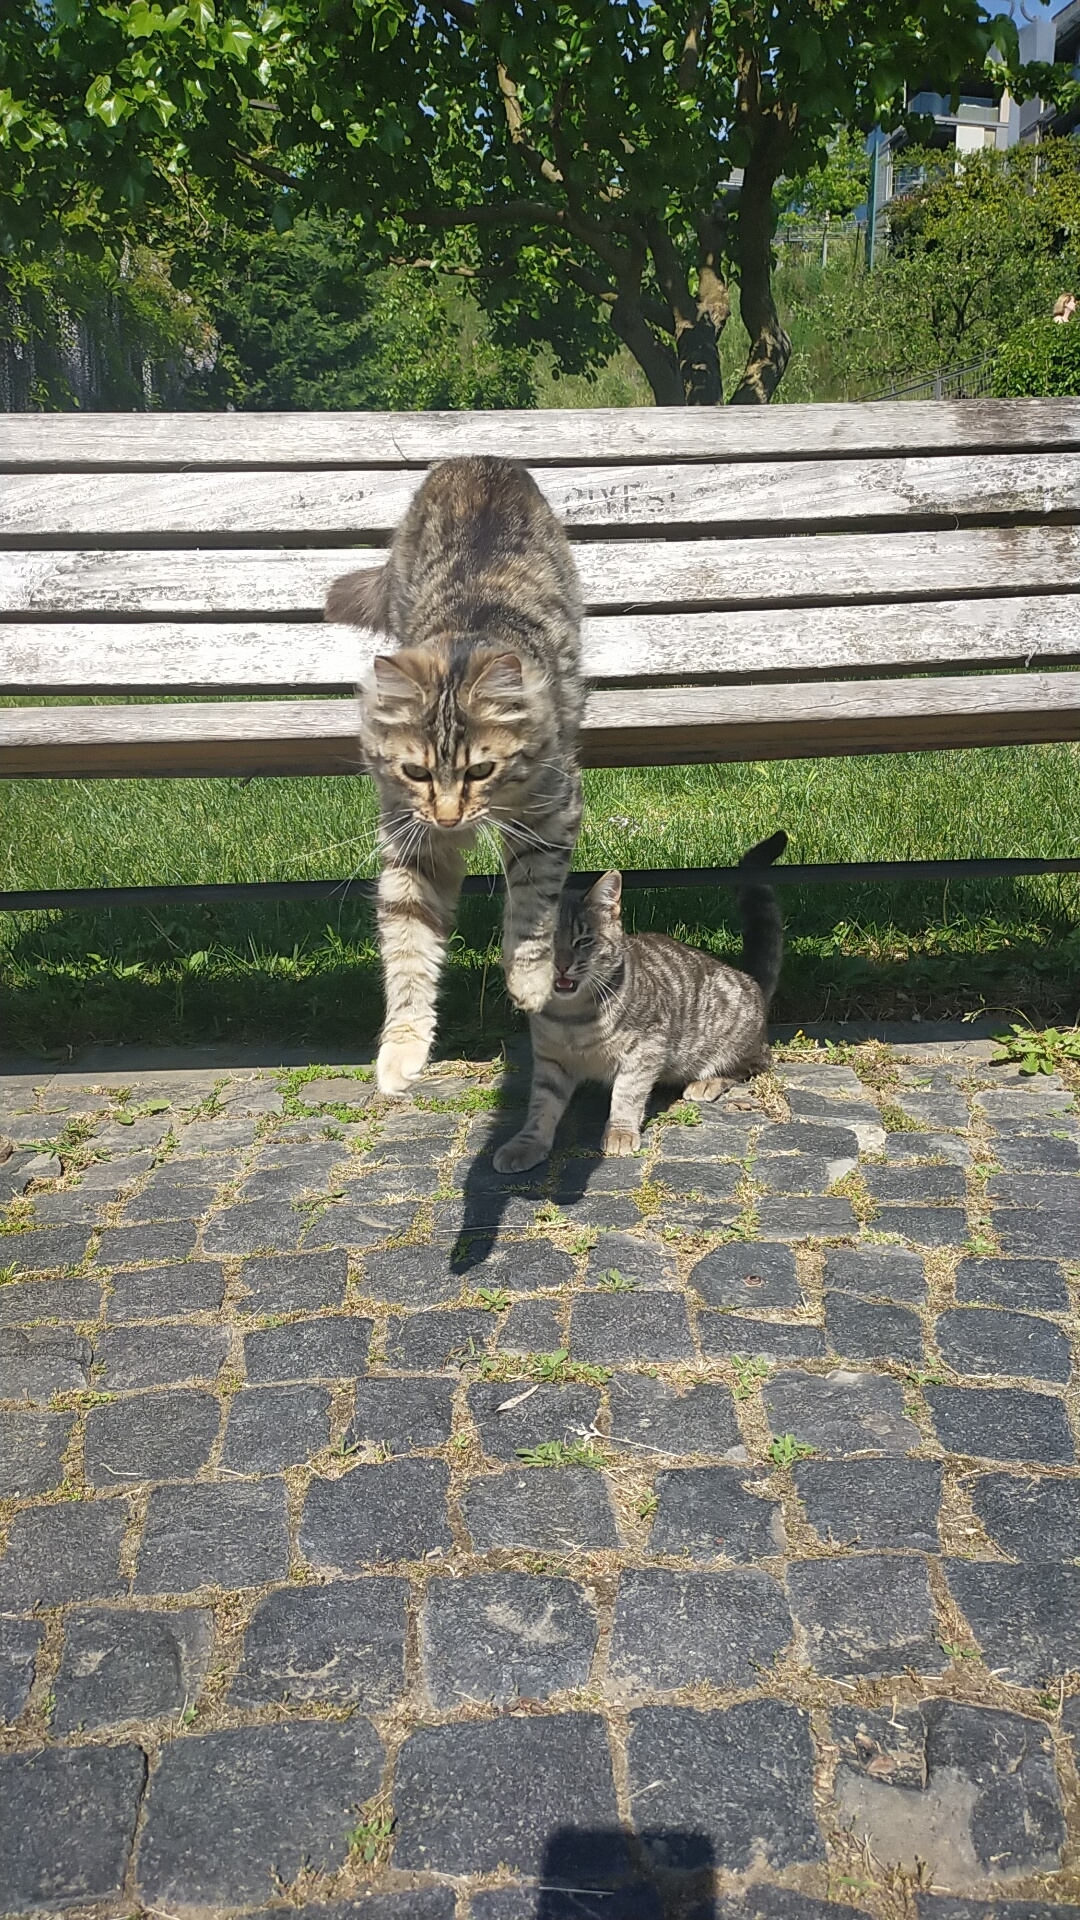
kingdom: Animalia
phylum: Chordata
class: Mammalia
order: Carnivora
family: Felidae
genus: Felis
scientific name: Felis catus
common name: Domestic cat
